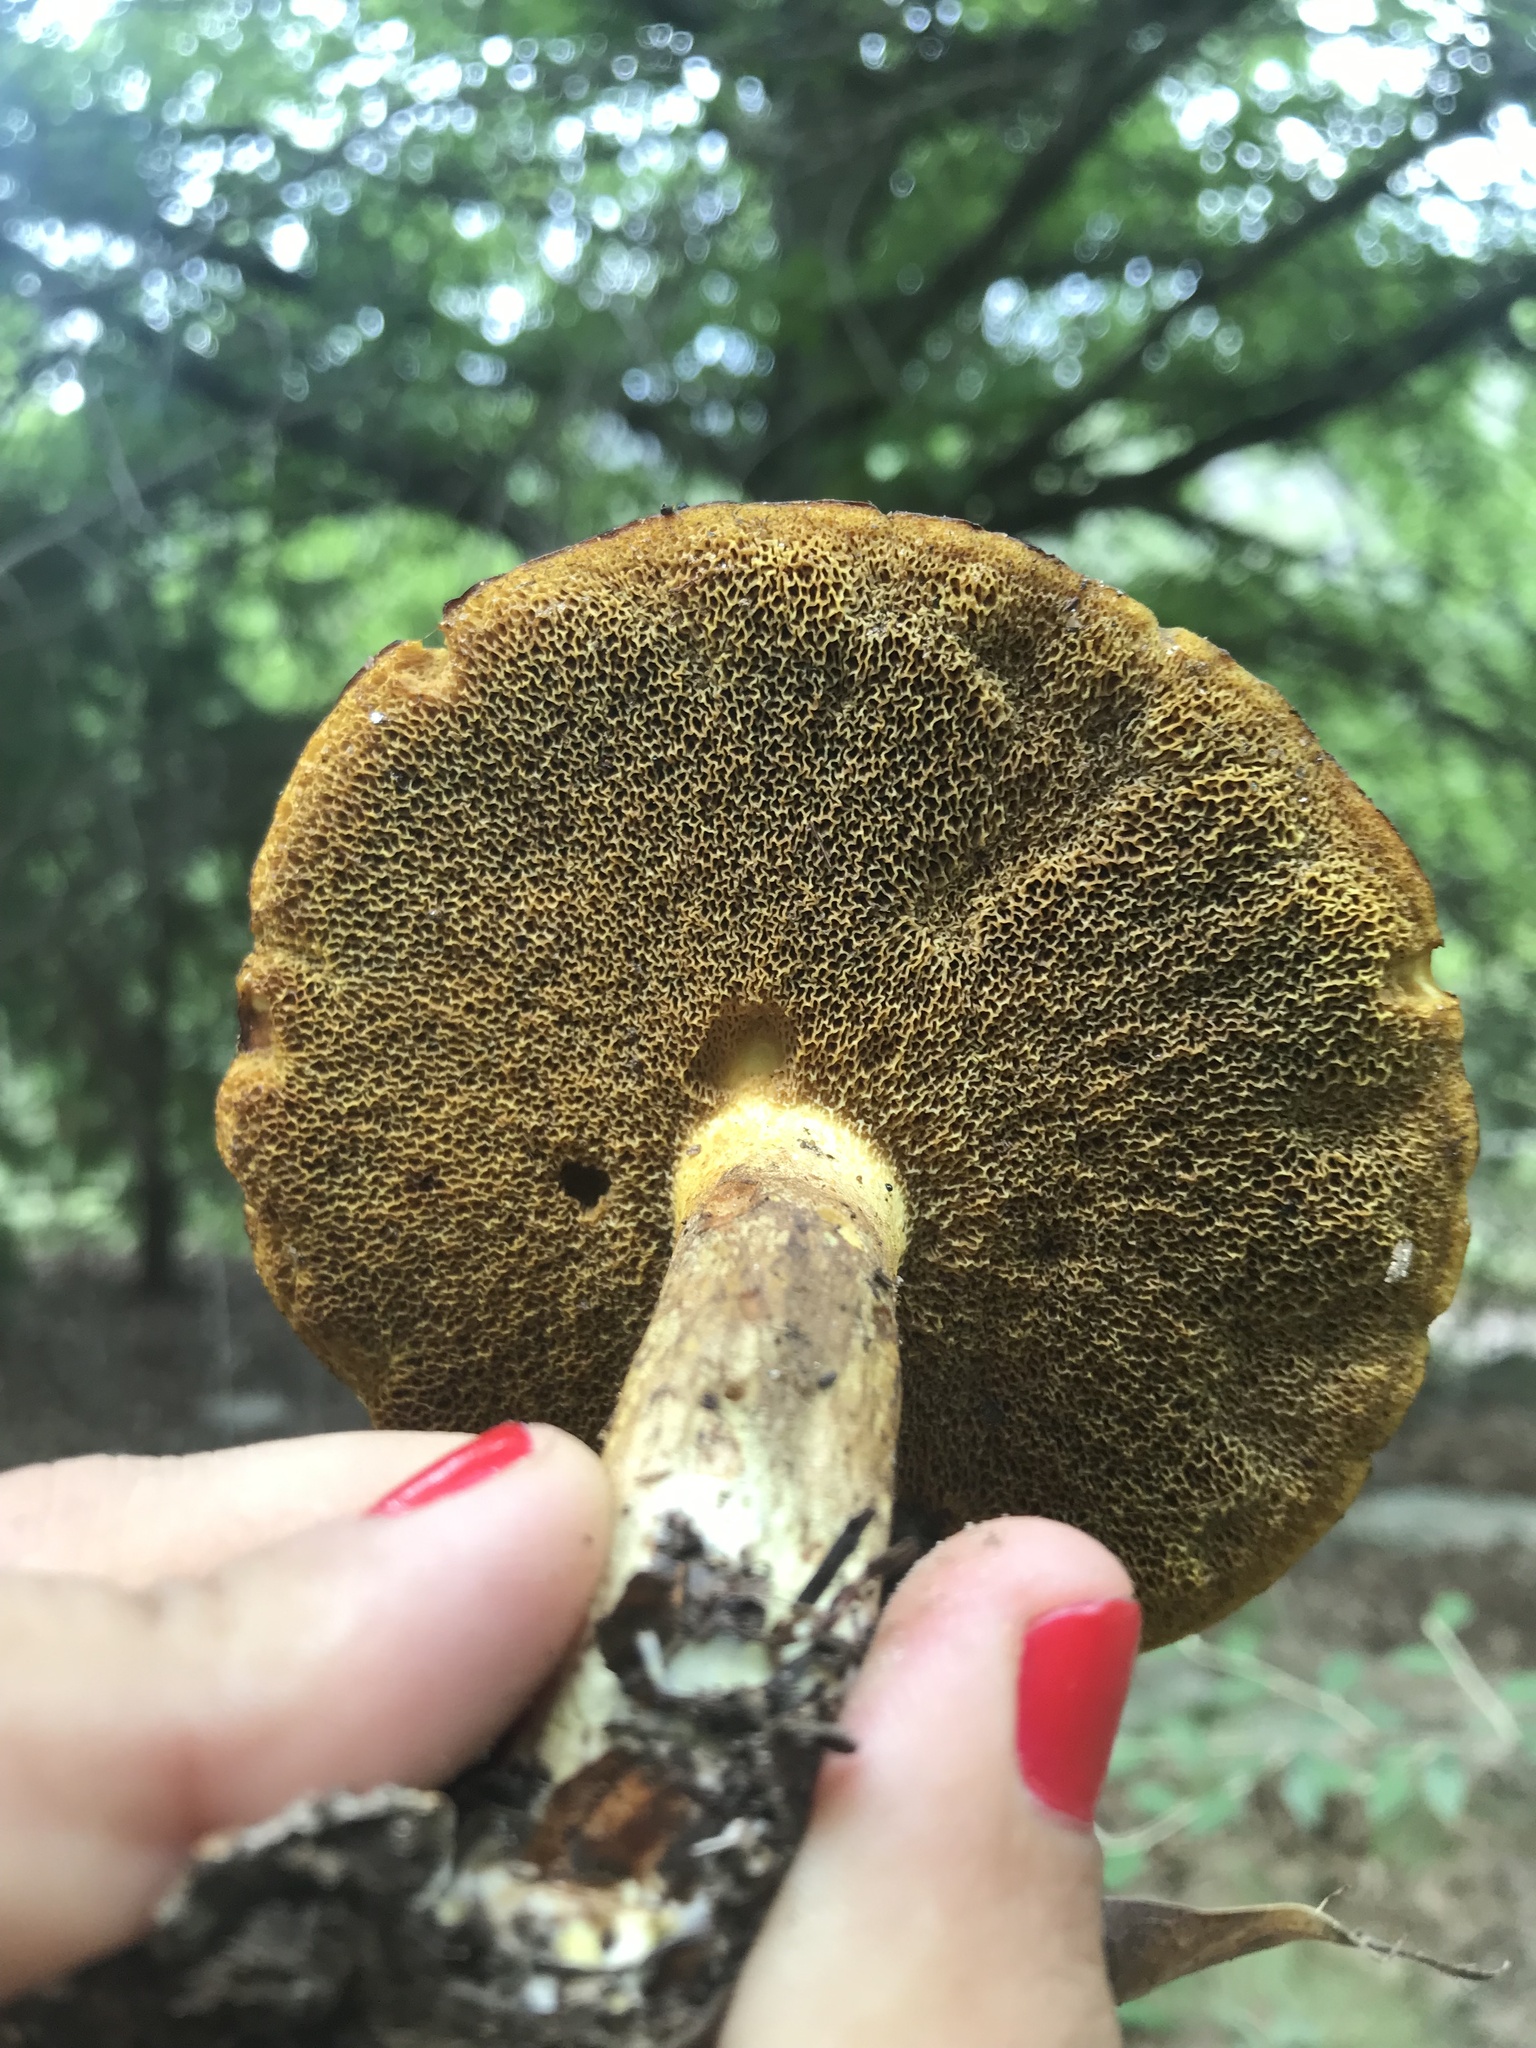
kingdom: Fungi
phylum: Basidiomycota
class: Agaricomycetes
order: Boletales
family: Suillaceae
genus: Suillus
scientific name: Suillus granulatus
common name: Weeping bolete
